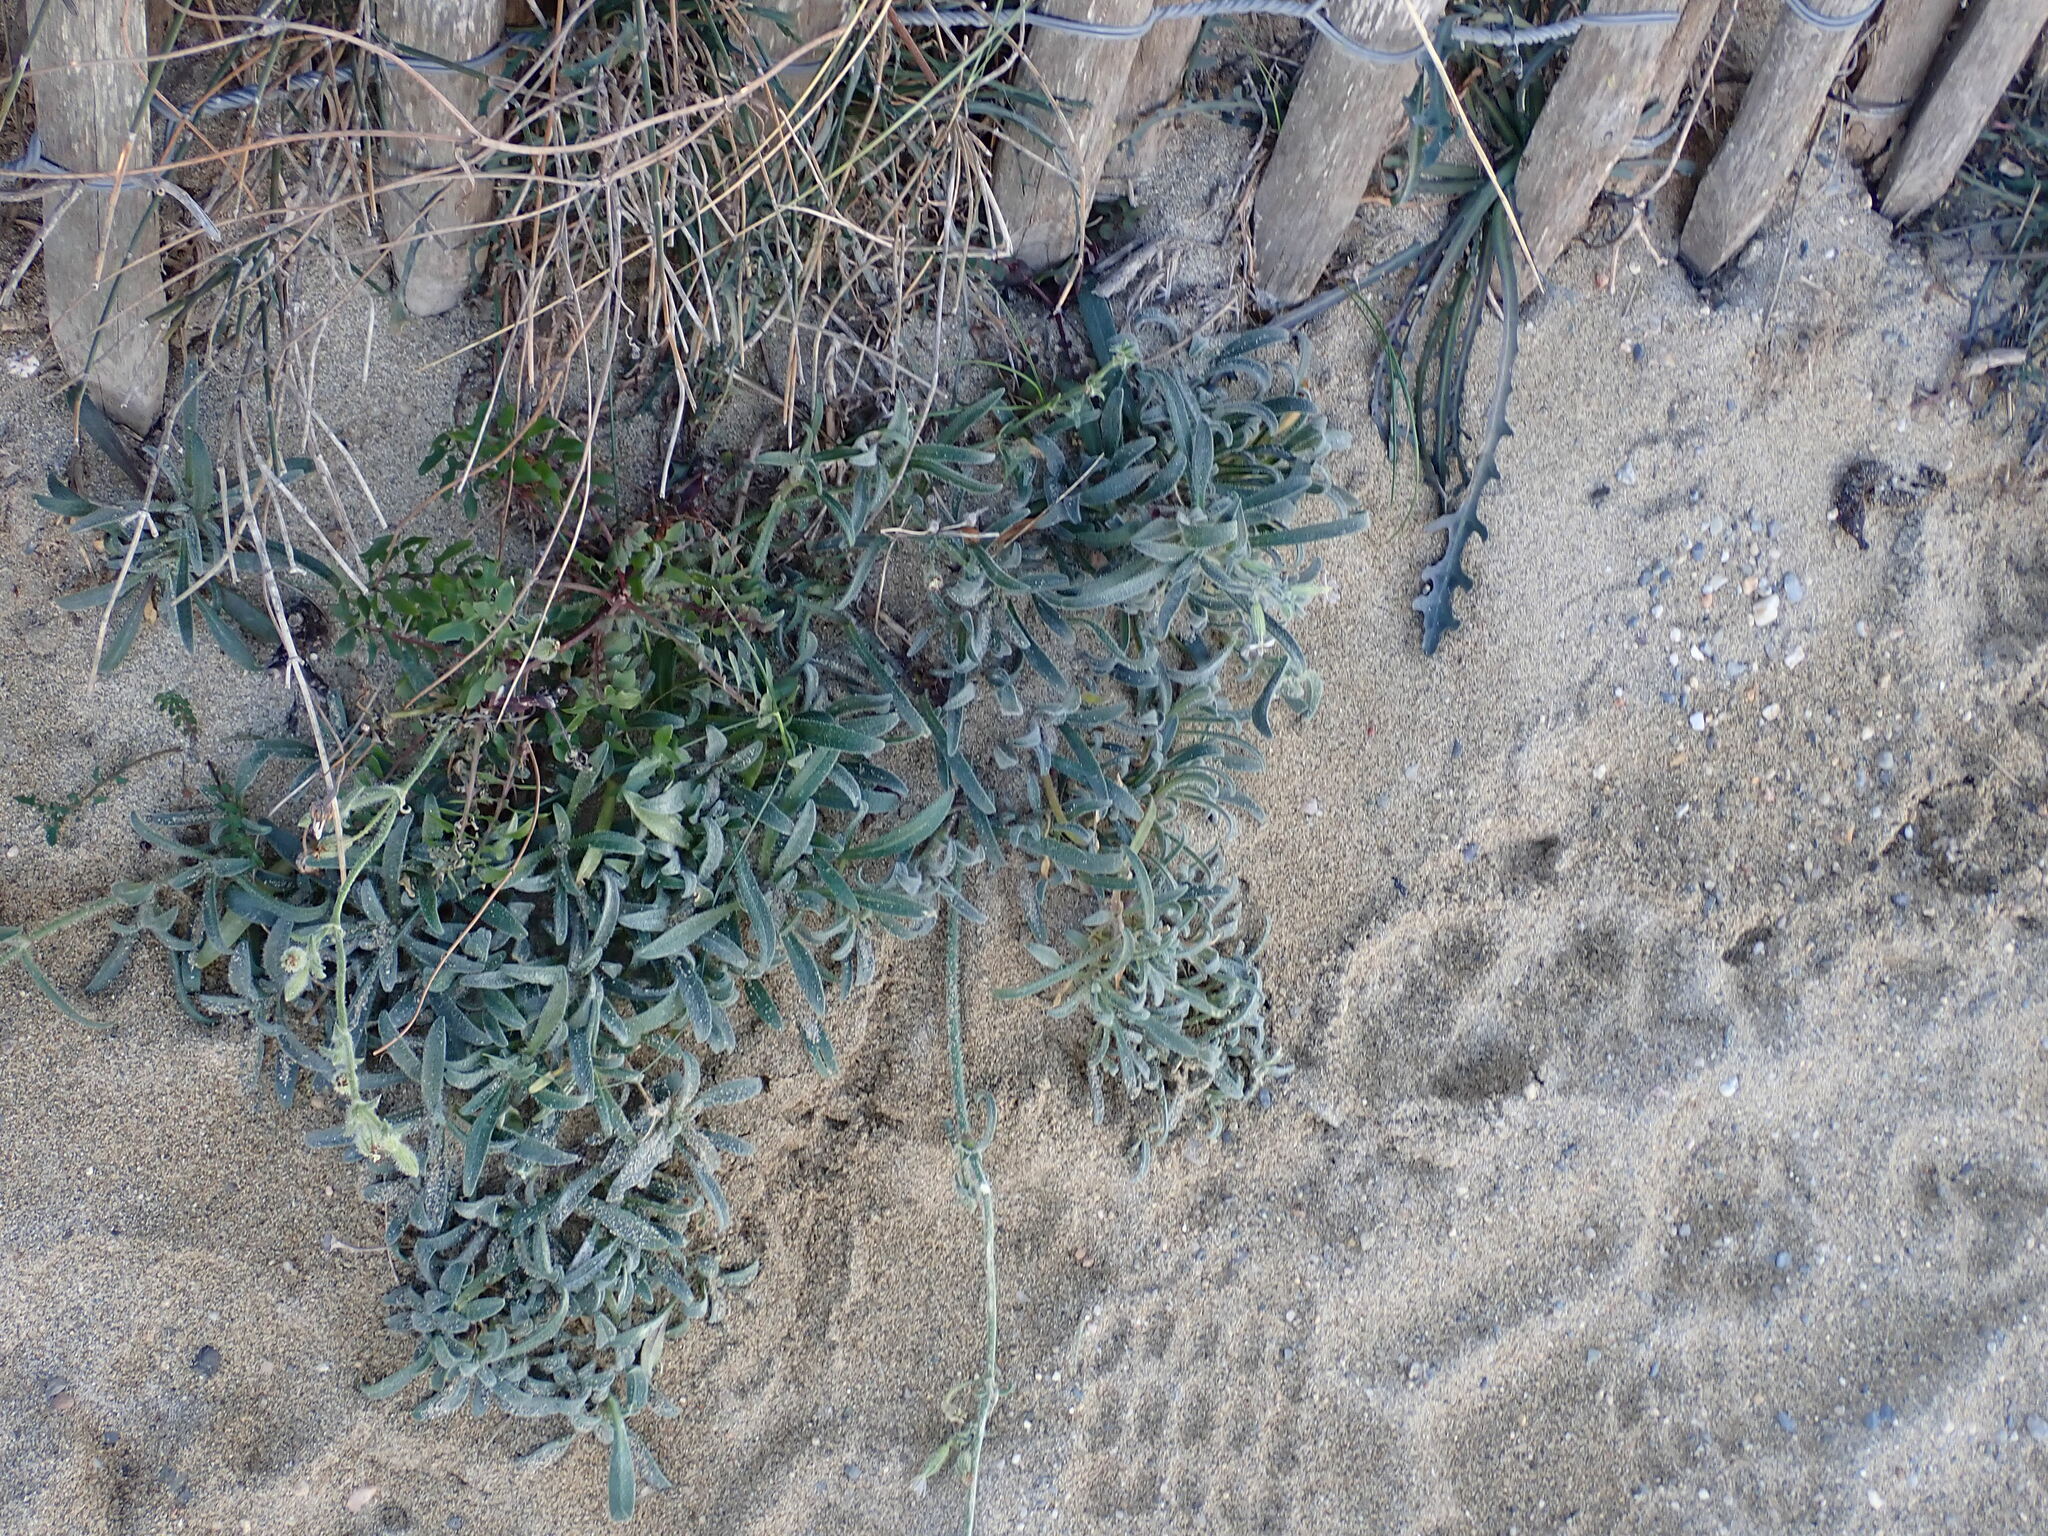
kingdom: Plantae
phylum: Tracheophyta
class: Magnoliopsida
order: Caryophyllales
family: Caryophyllaceae
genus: Silene
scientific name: Silene nicaeensis
